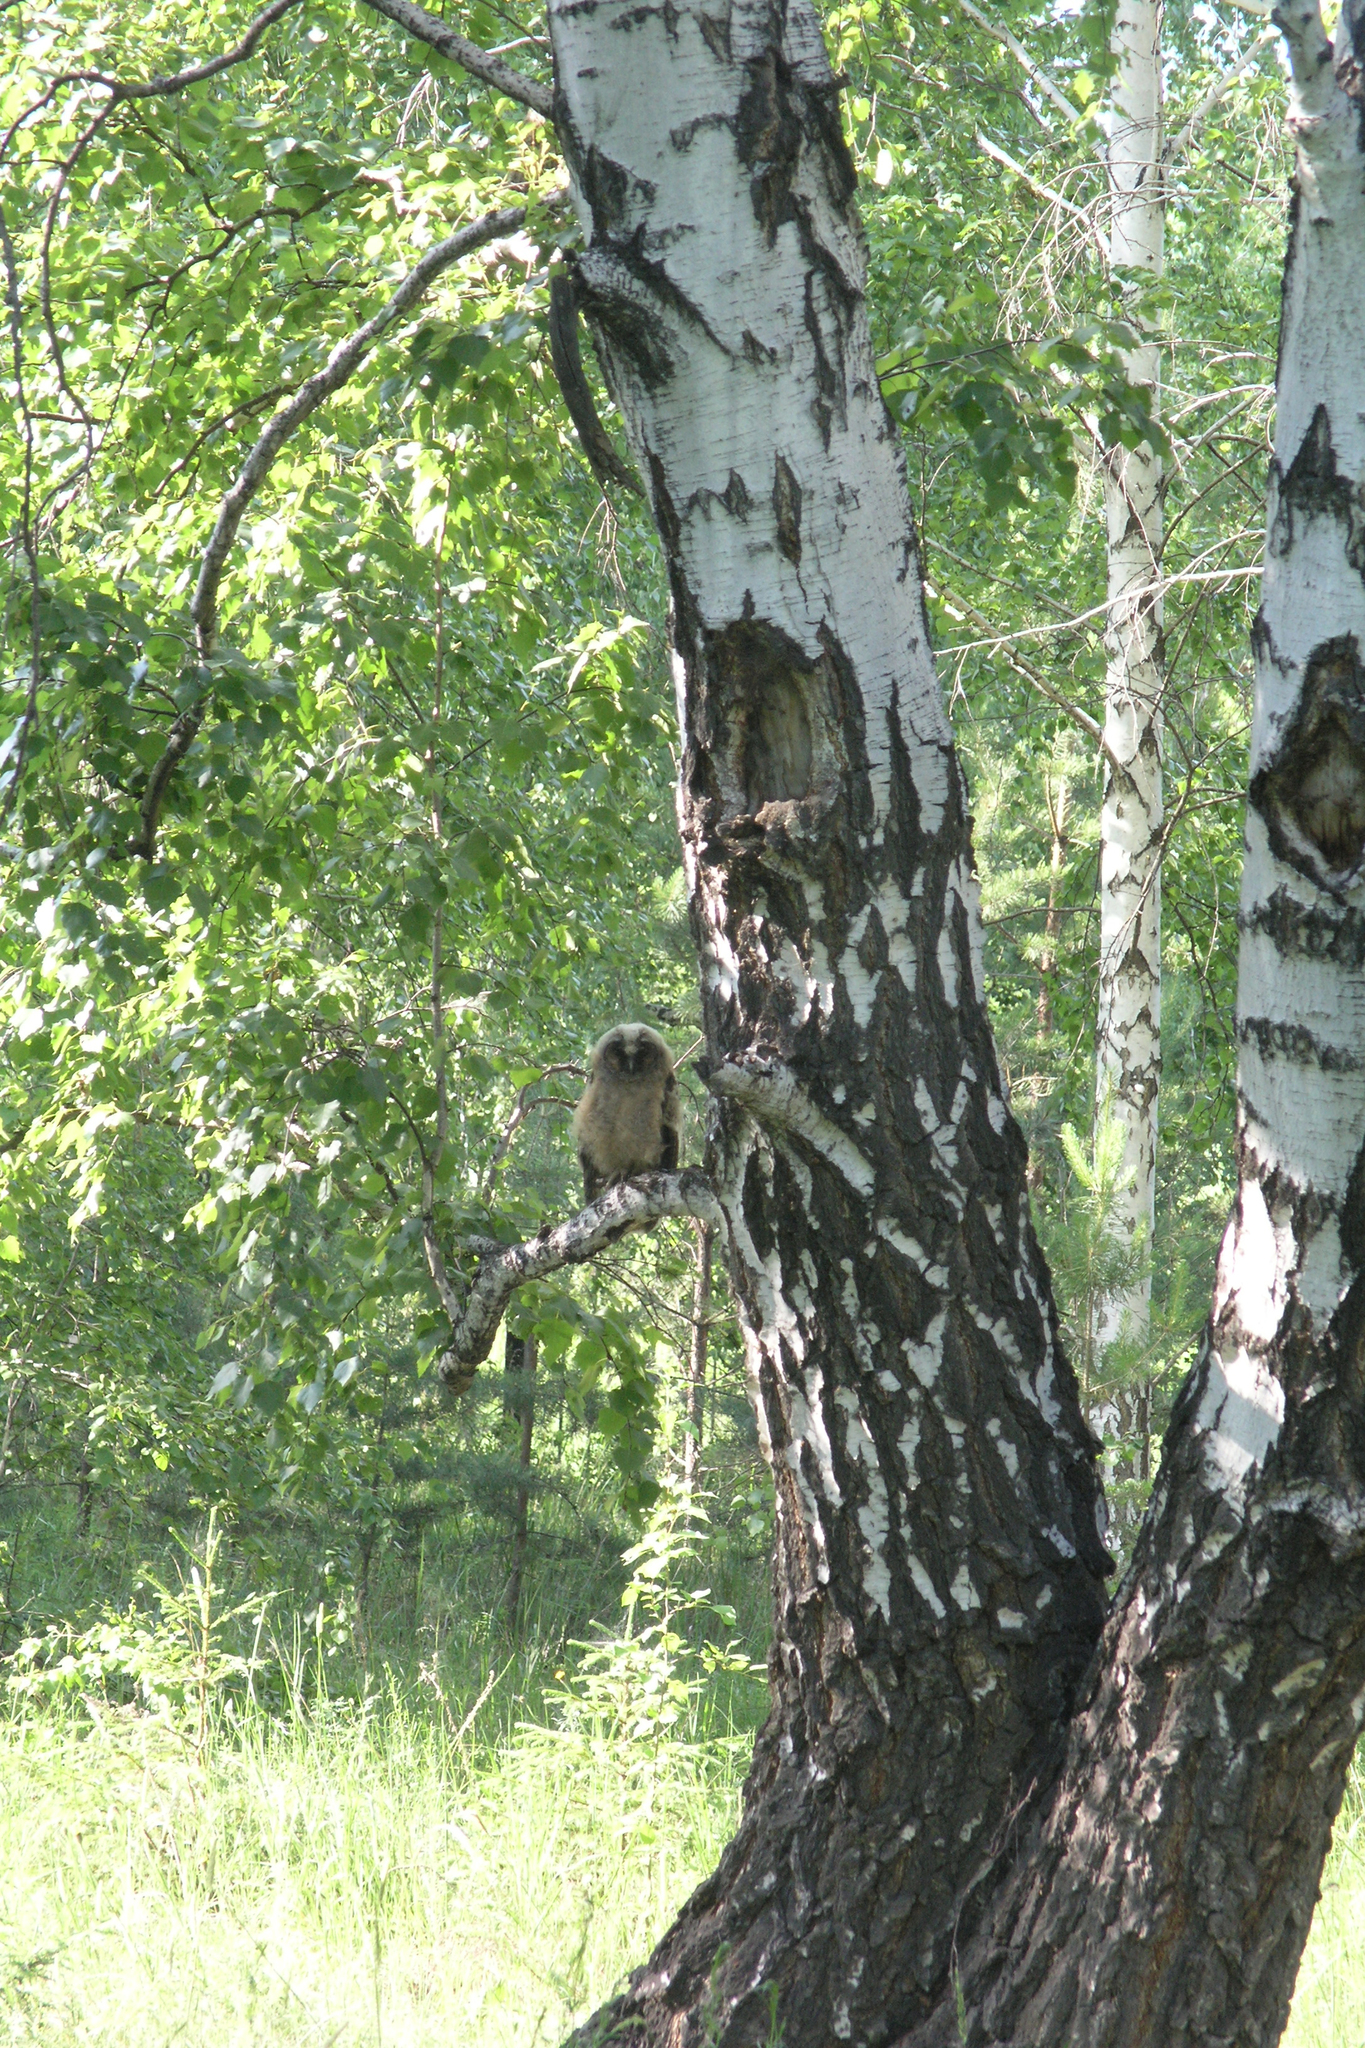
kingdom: Plantae
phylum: Tracheophyta
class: Magnoliopsida
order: Fagales
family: Betulaceae
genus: Betula
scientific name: Betula pendula
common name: Silver birch
